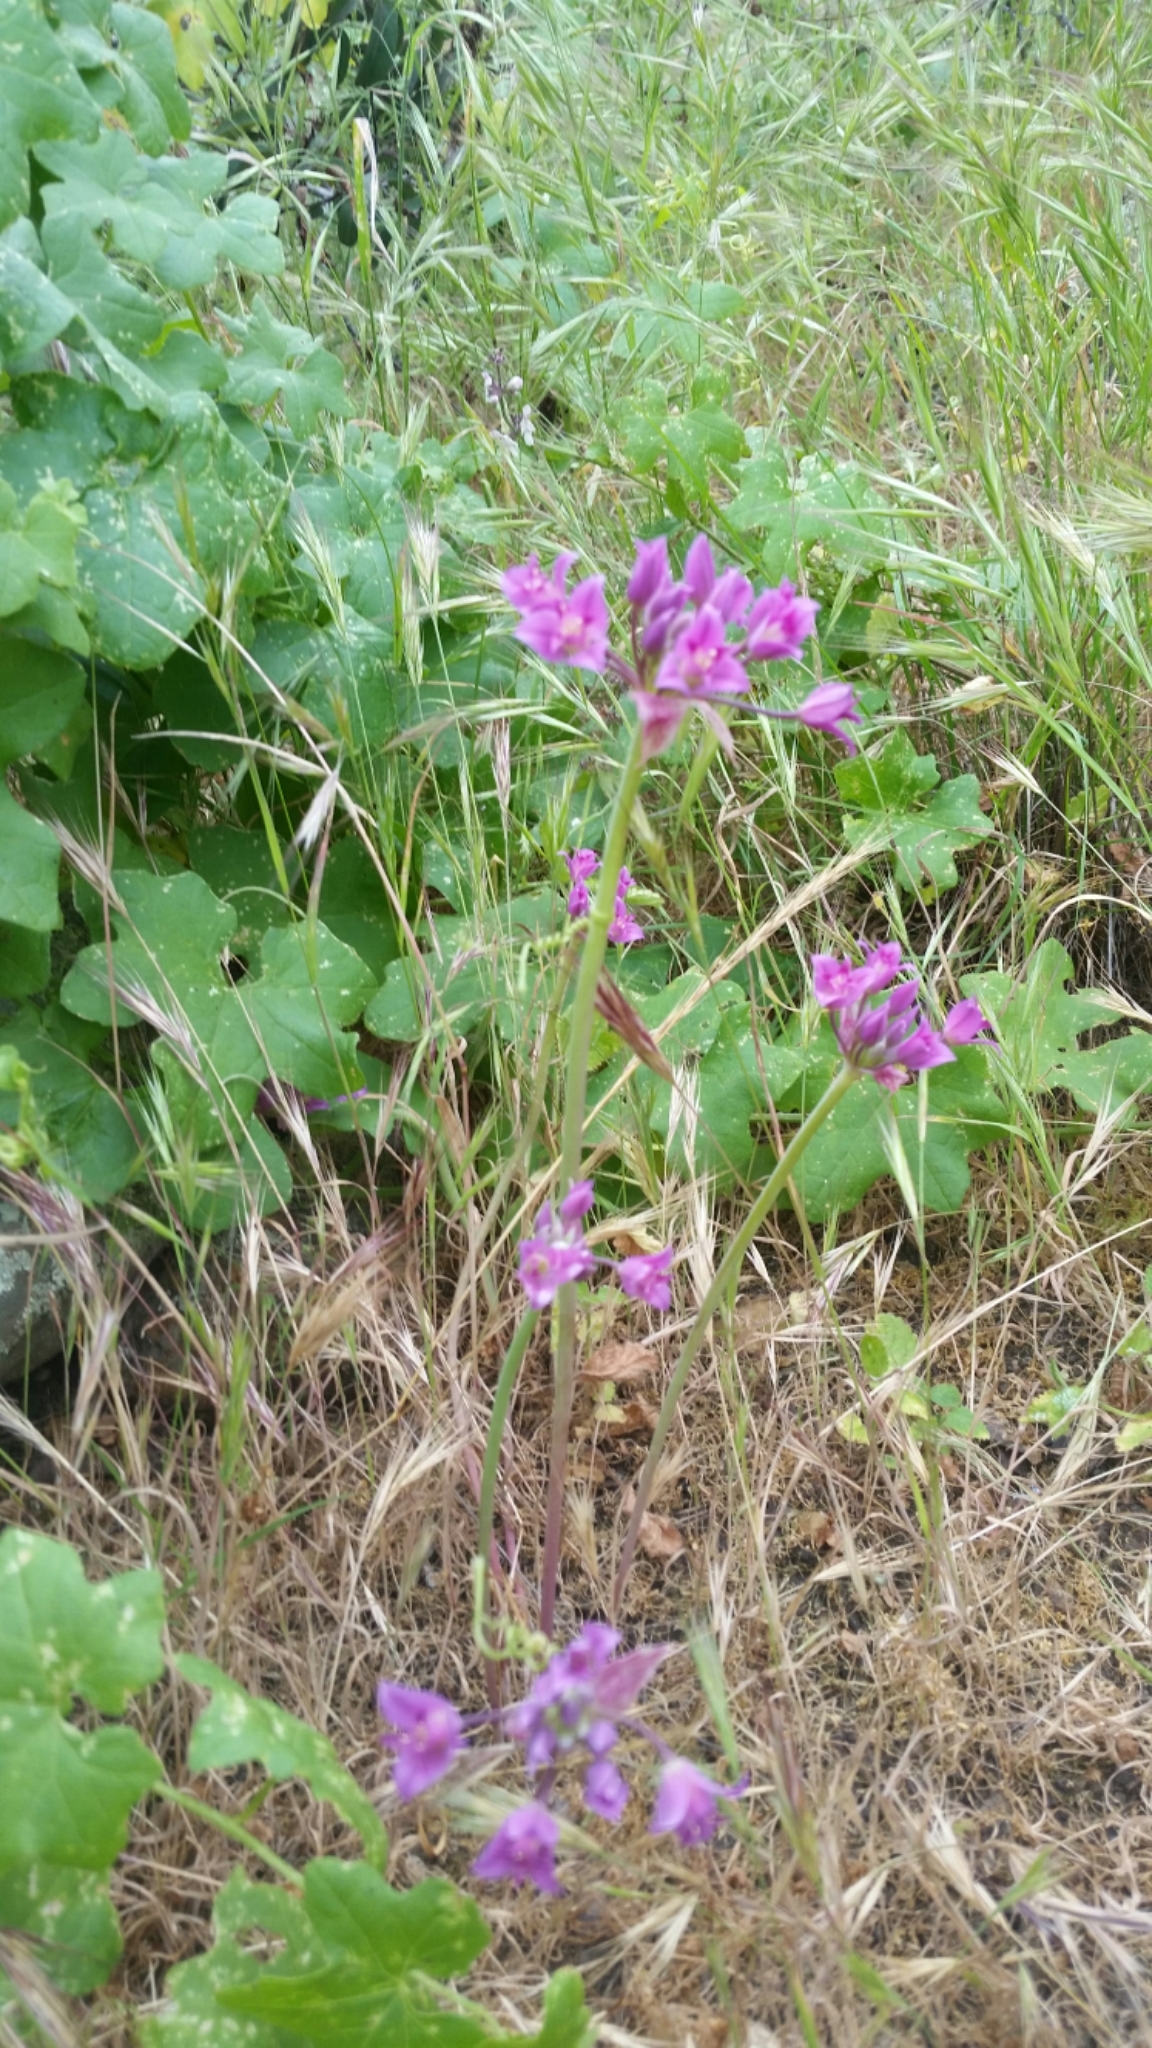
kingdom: Plantae
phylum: Tracheophyta
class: Liliopsida
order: Asparagales
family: Amaryllidaceae
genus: Allium
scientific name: Allium peninsulare
